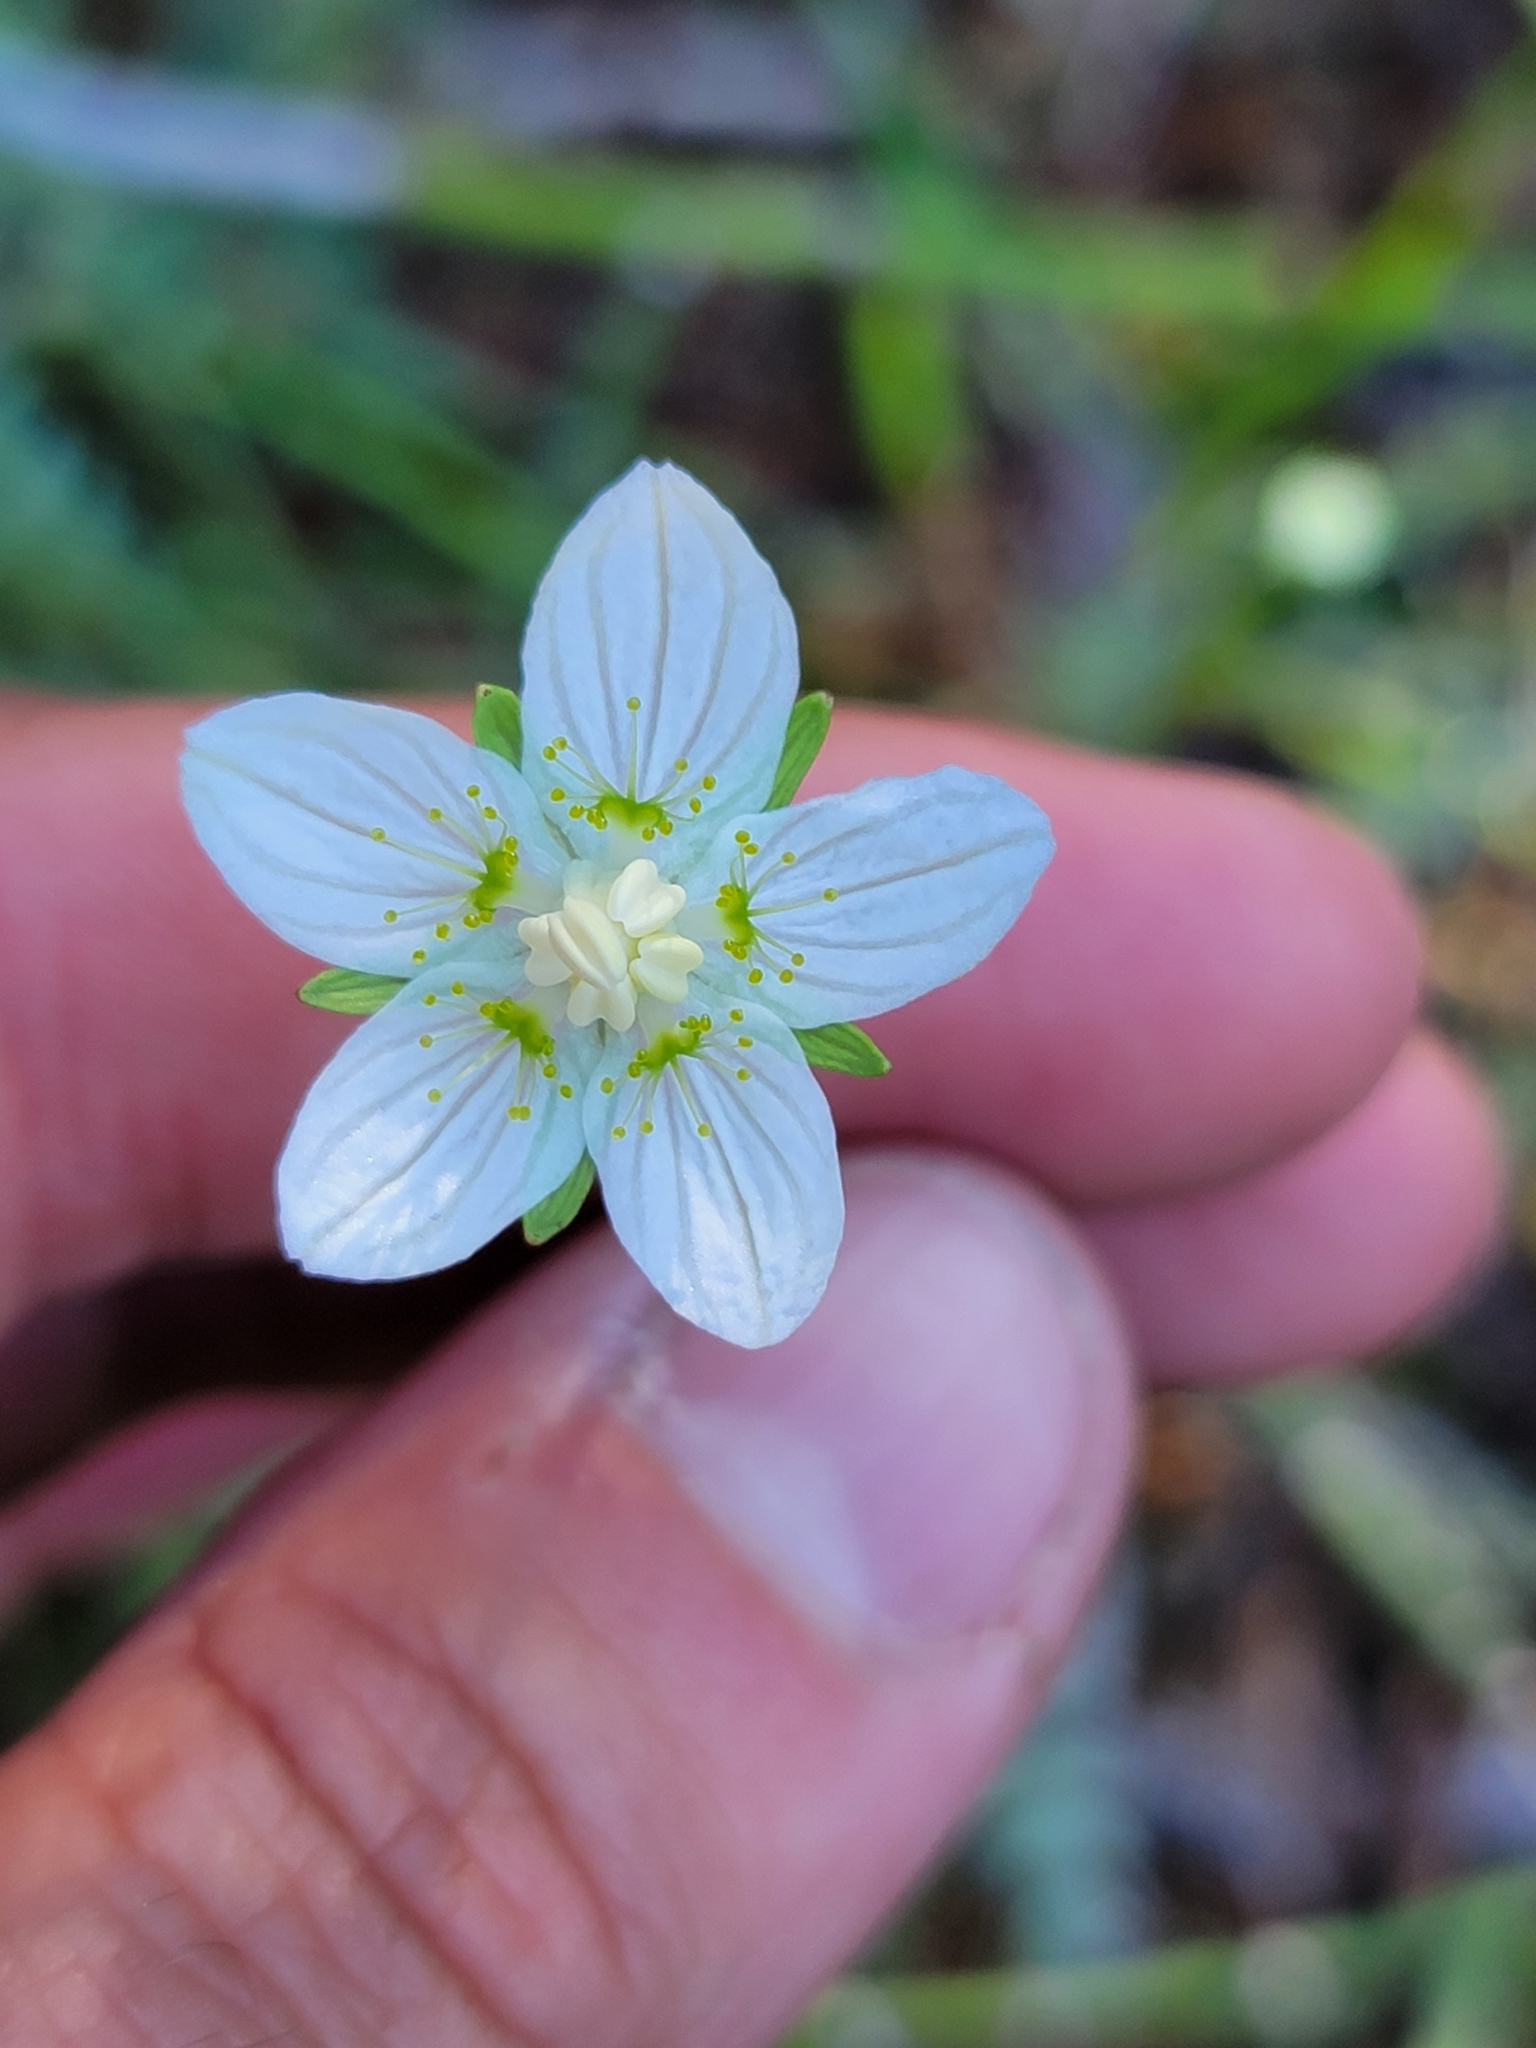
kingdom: Plantae
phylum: Tracheophyta
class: Magnoliopsida
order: Celastrales
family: Parnassiaceae
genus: Parnassia
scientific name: Parnassia palustris
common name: Grass-of-parnassus
